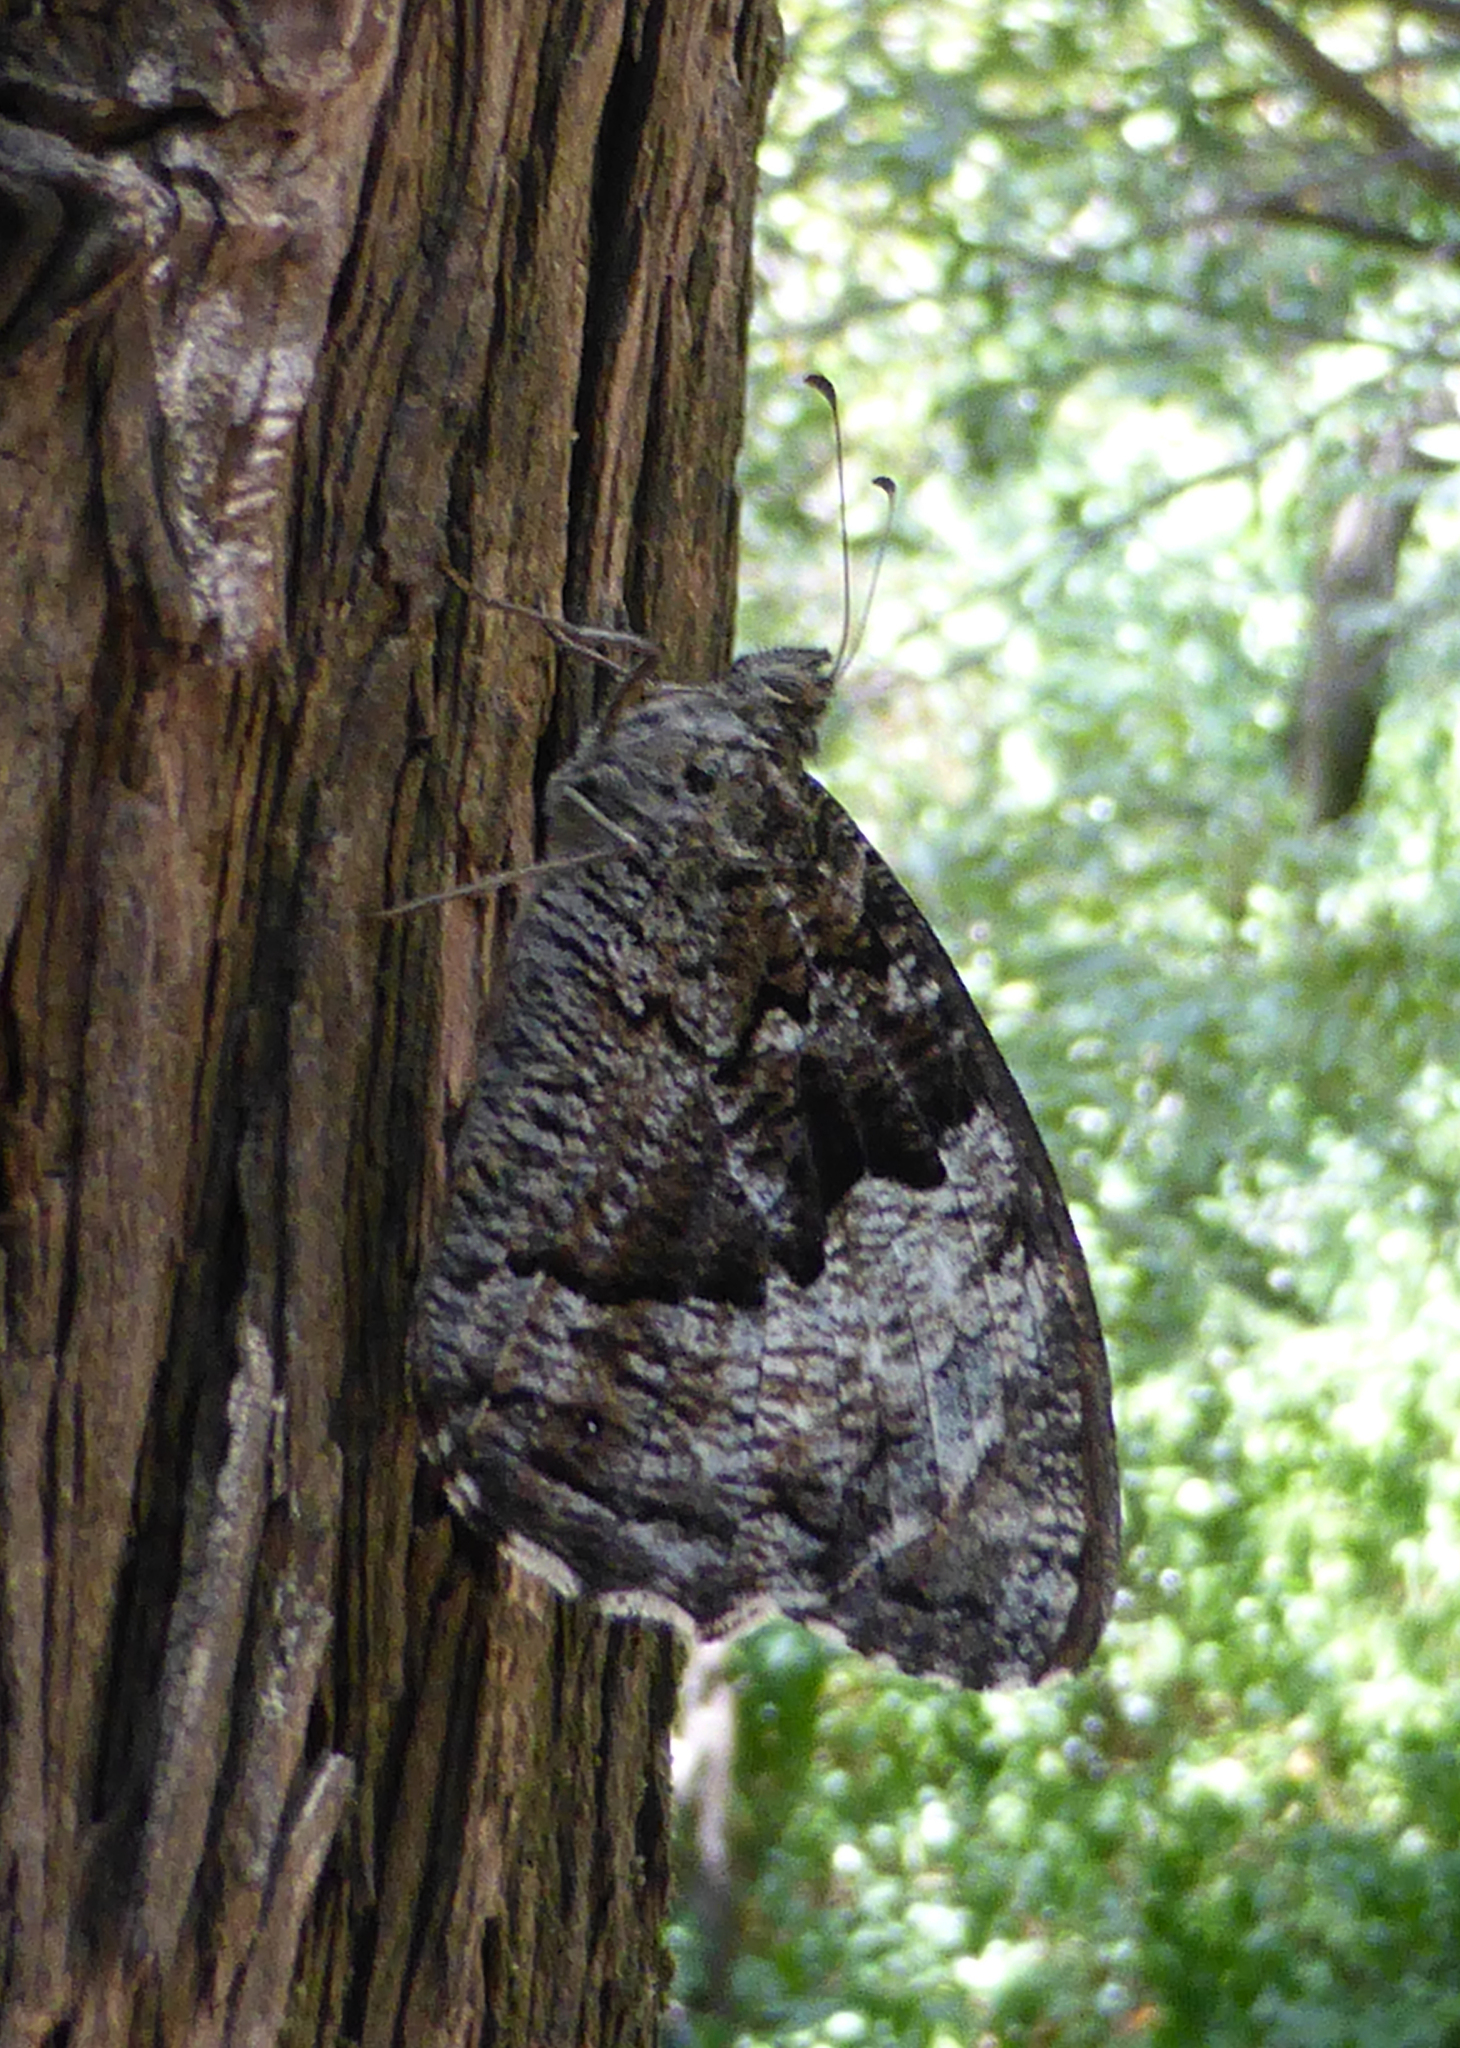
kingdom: Animalia
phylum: Arthropoda
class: Insecta
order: Lepidoptera
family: Nymphalidae
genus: Hipparchia
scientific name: Hipparchia syriaca
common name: Eastern rock grayling
